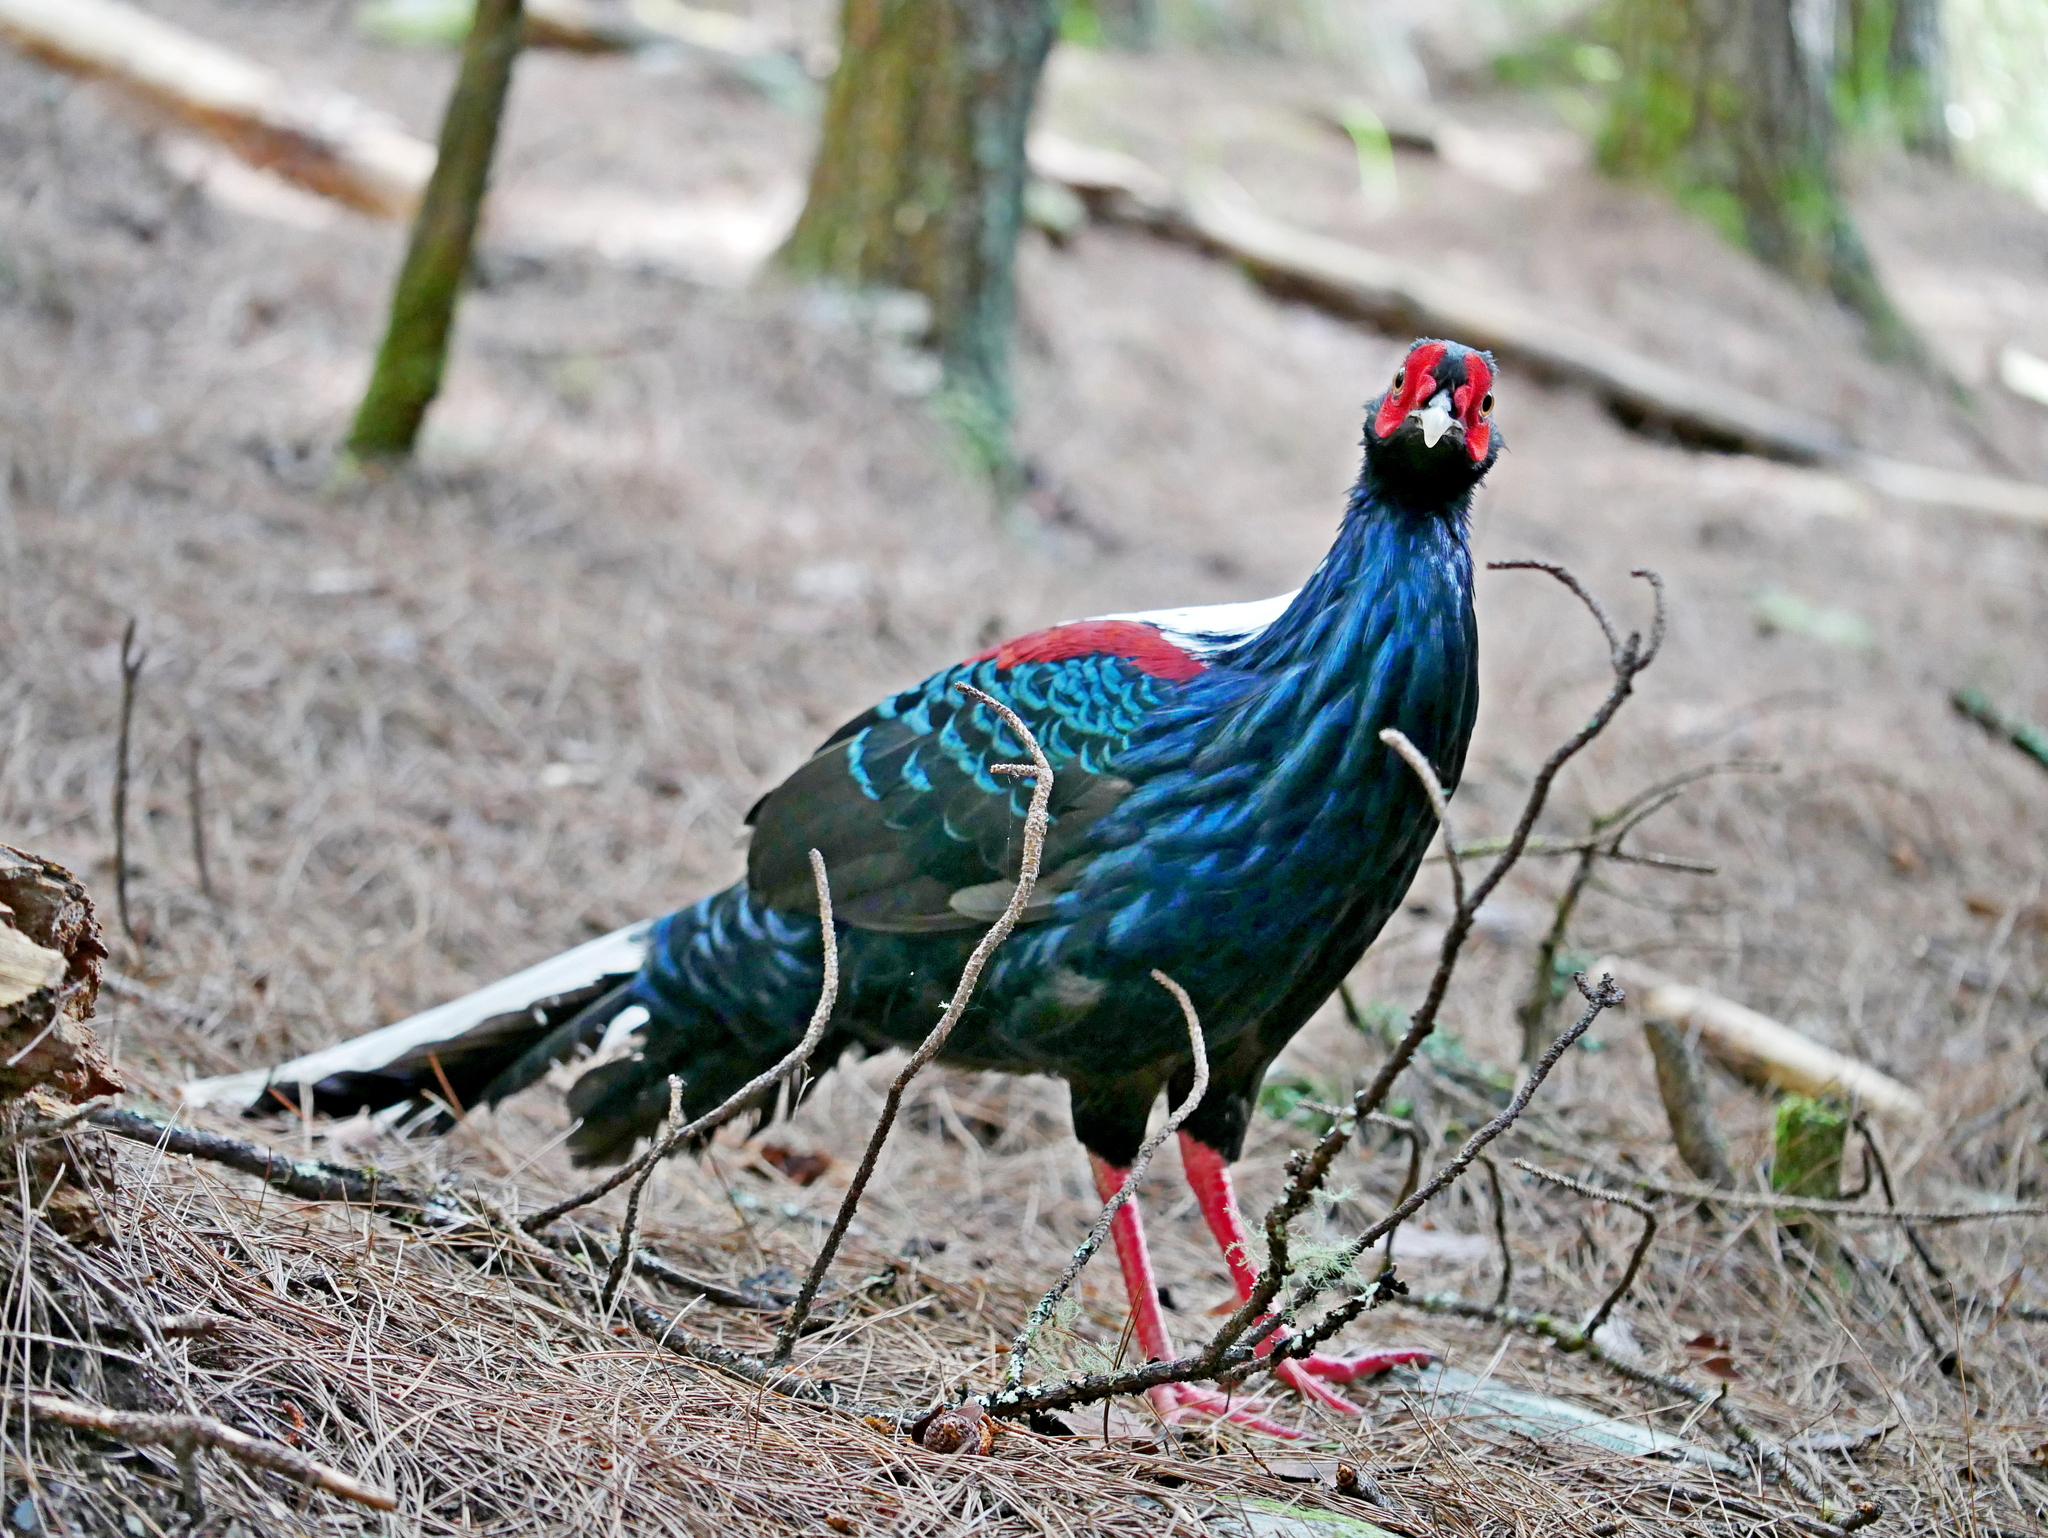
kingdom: Animalia
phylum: Chordata
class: Aves
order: Galliformes
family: Phasianidae
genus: Lophura
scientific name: Lophura swinhoii
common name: Swinhoe's pheasant
